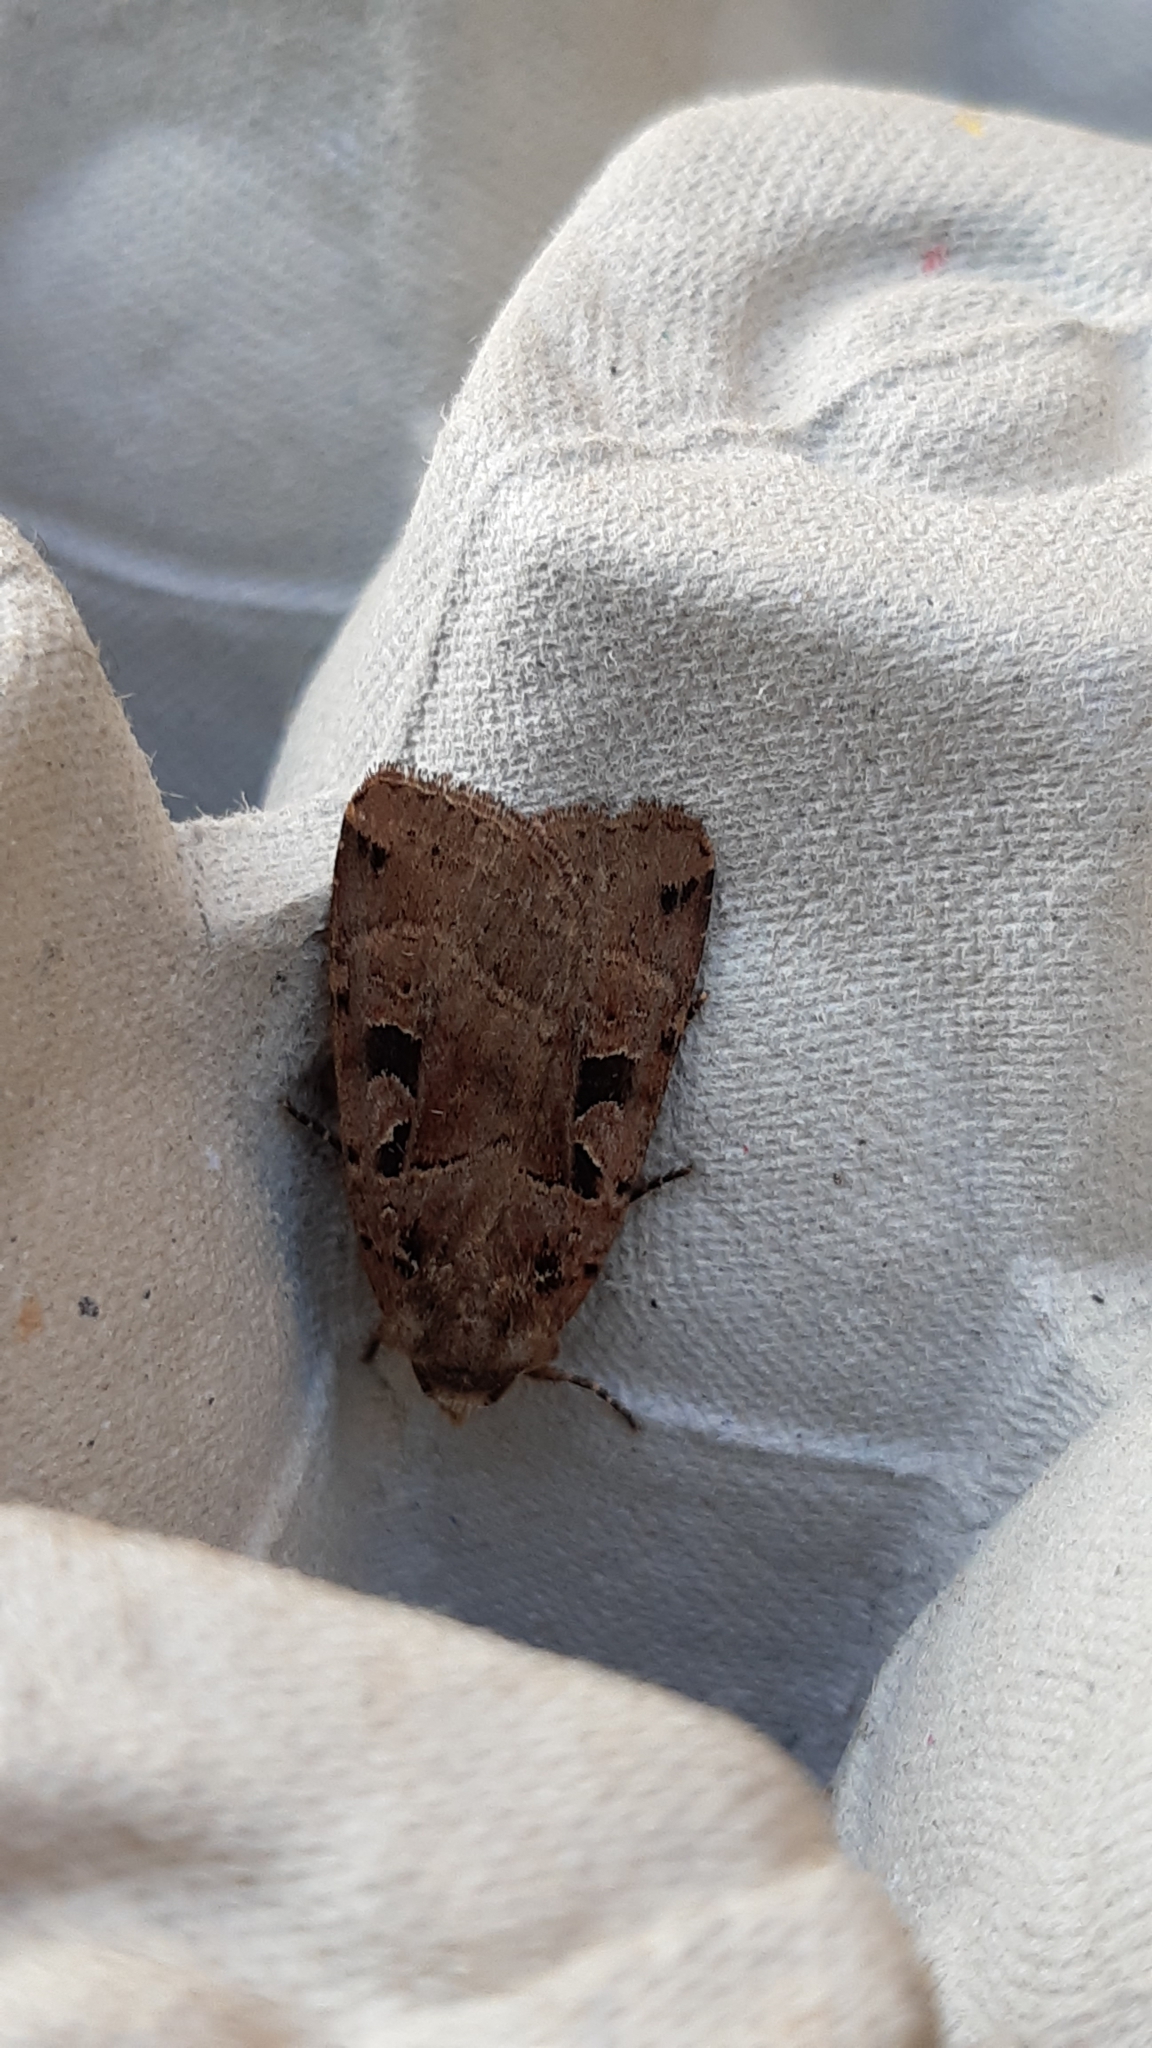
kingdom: Animalia
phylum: Arthropoda
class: Insecta
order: Lepidoptera
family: Noctuidae
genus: Xestia
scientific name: Xestia triangulum
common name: Double square-spot
